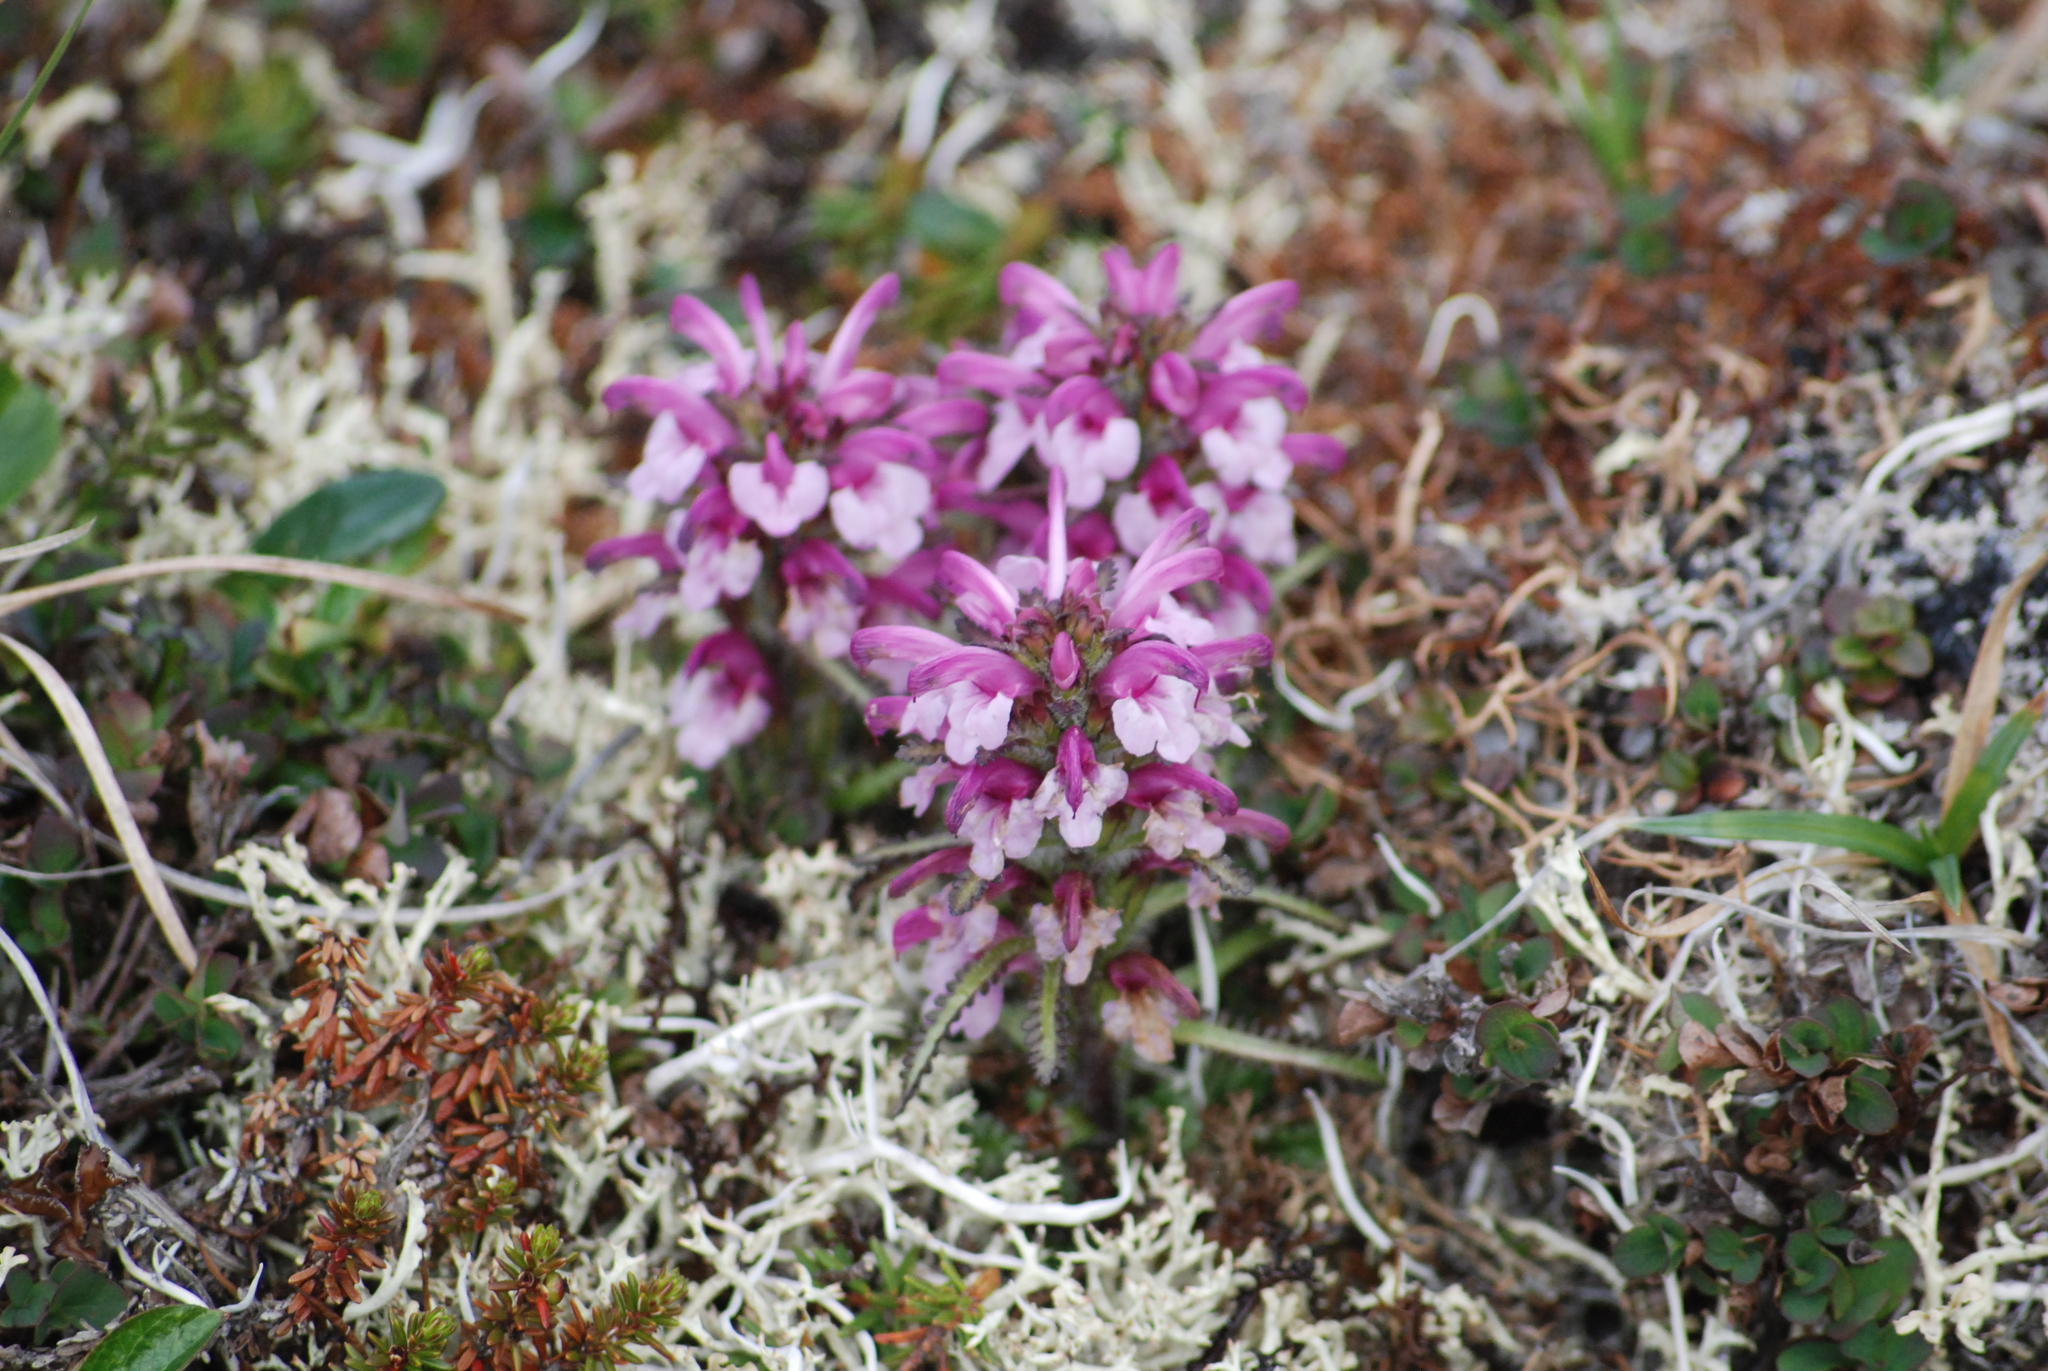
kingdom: Plantae
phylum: Tracheophyta
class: Magnoliopsida
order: Lamiales
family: Orobanchaceae
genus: Pedicularis
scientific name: Pedicularis langsdorffii
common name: Langsdorff's lousewort
